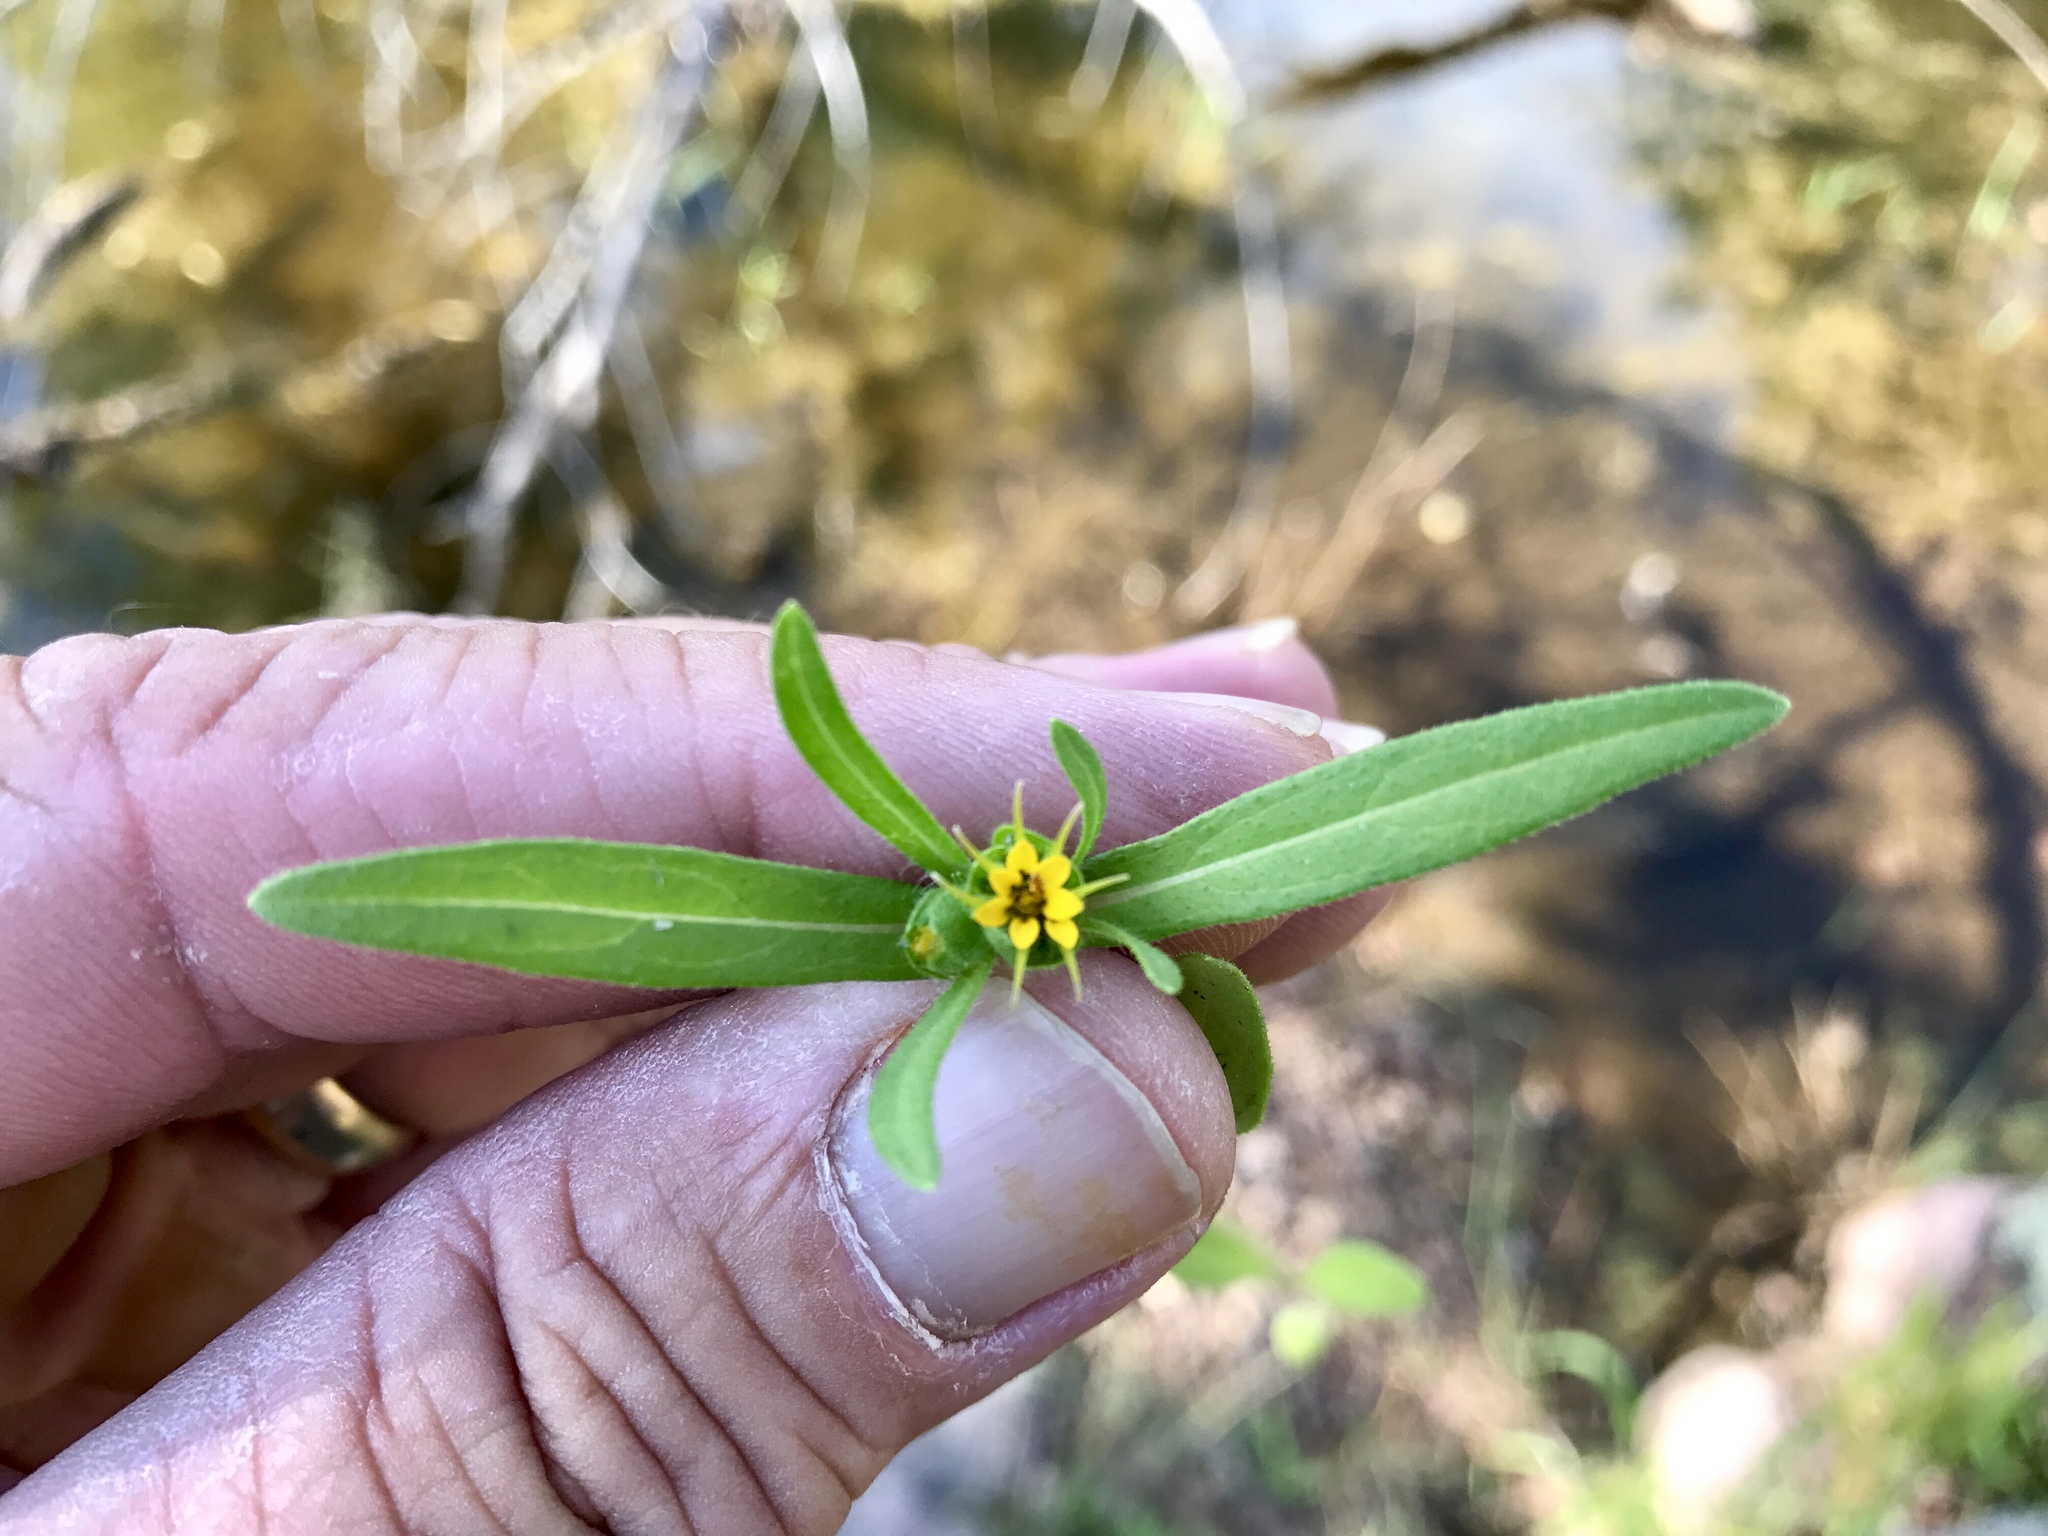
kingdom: Plantae
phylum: Tracheophyta
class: Magnoliopsida
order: Asterales
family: Asteraceae
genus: Melampodium
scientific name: Melampodium longicorne
